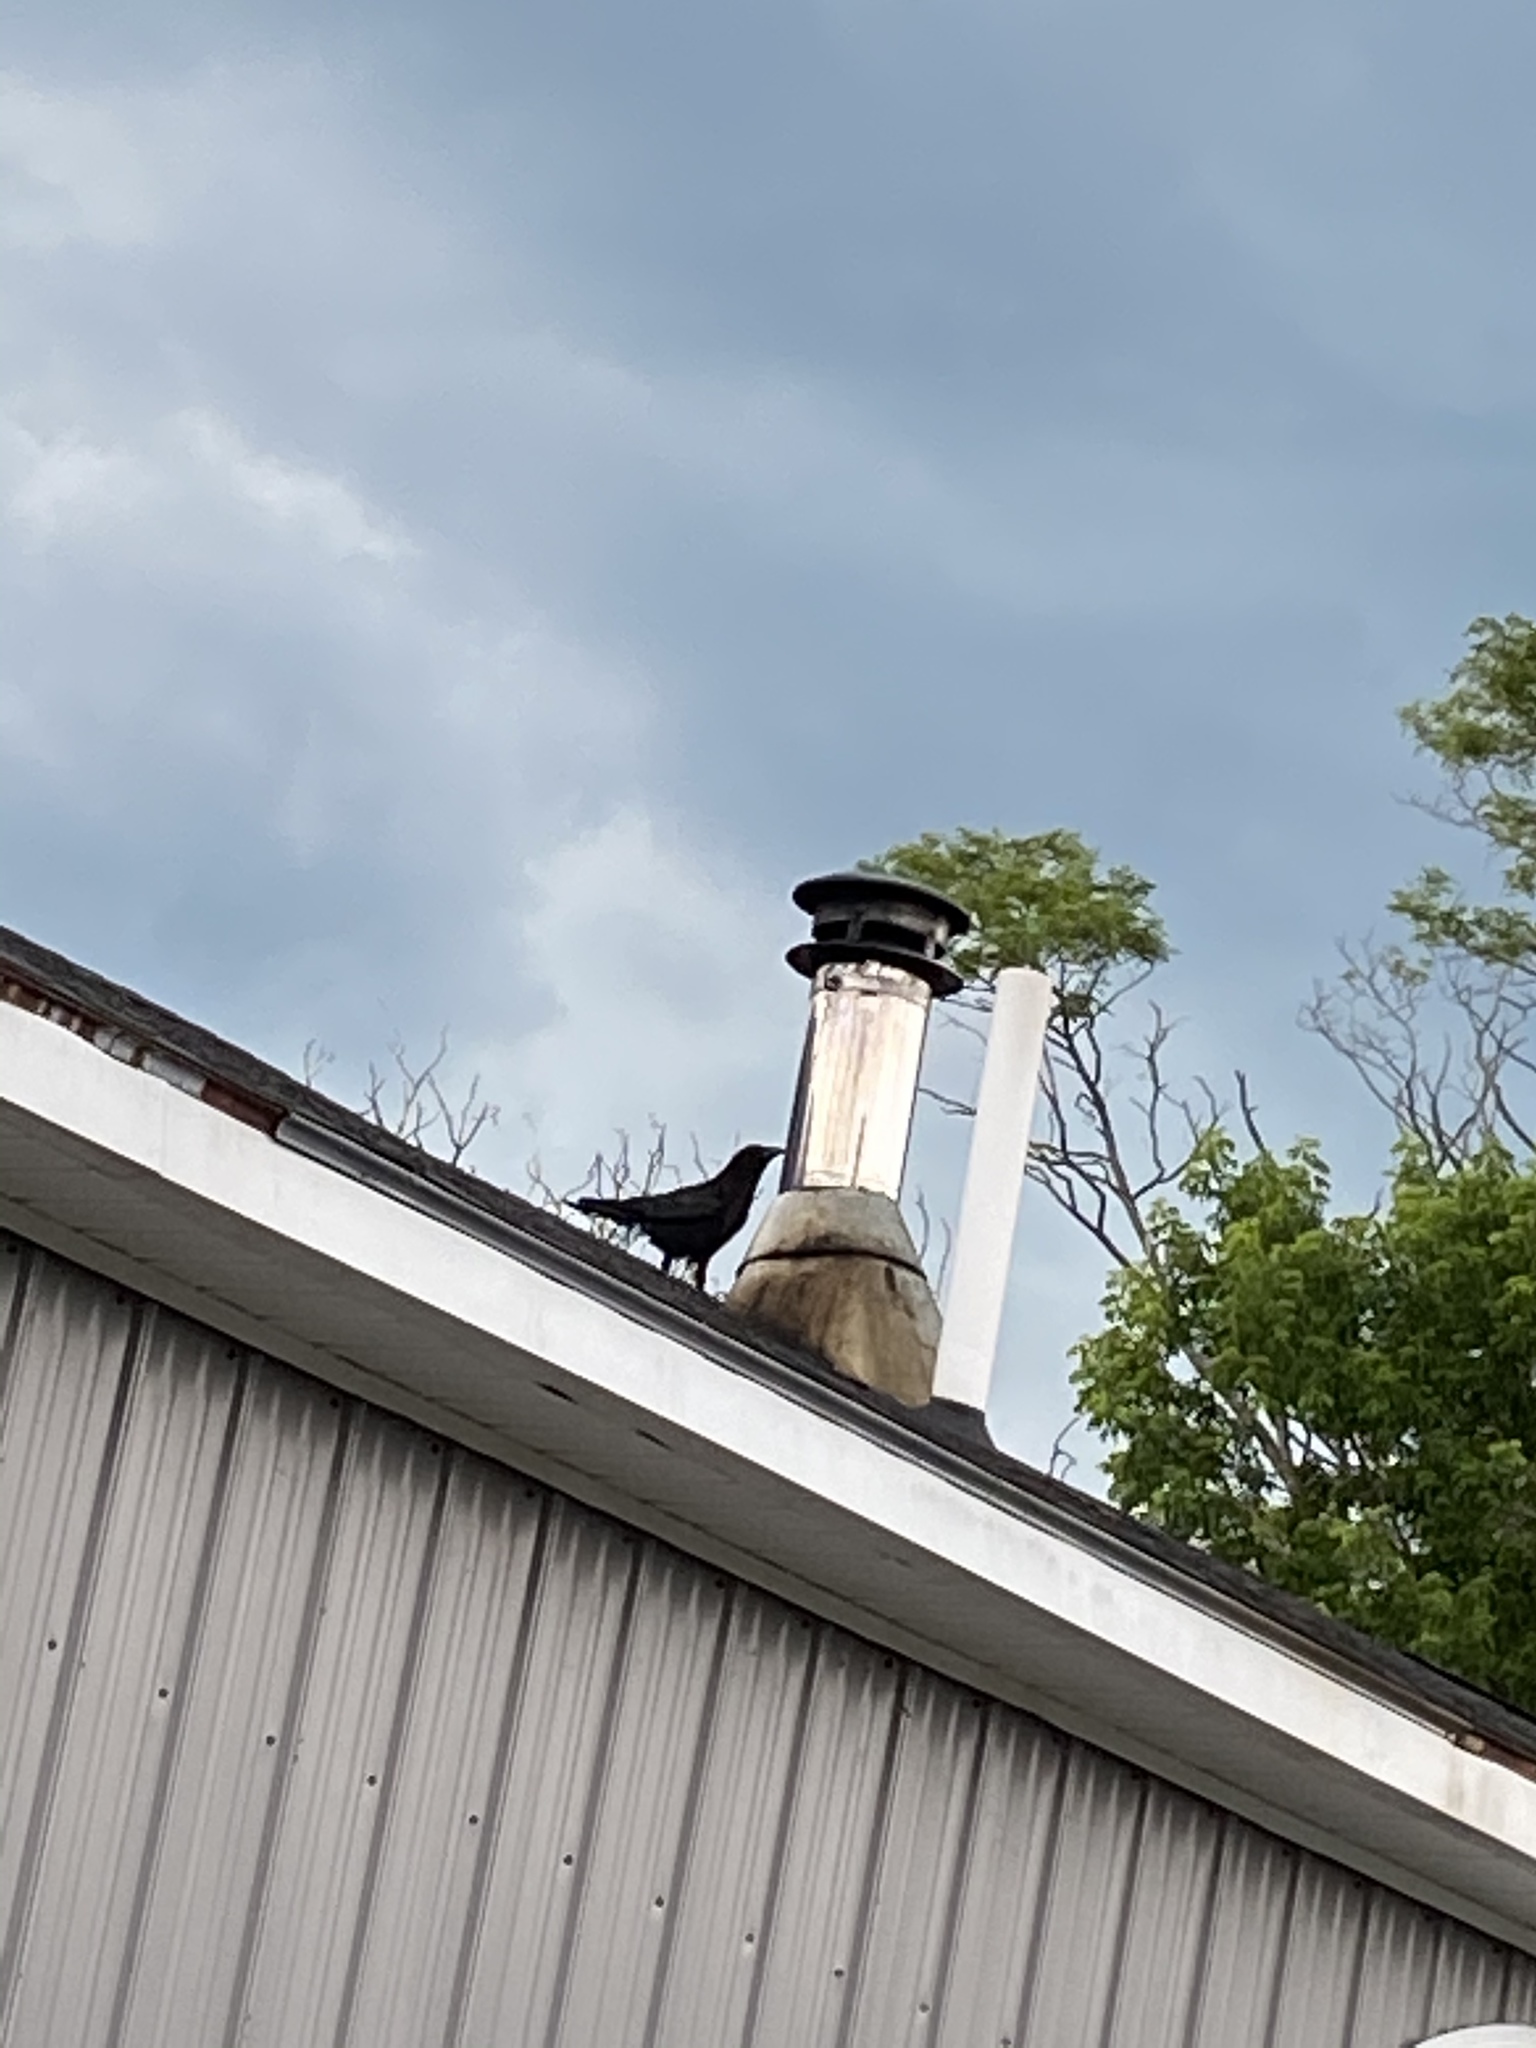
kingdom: Animalia
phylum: Chordata
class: Aves
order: Passeriformes
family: Corvidae
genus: Corvus
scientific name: Corvus brachyrhynchos
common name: American crow
